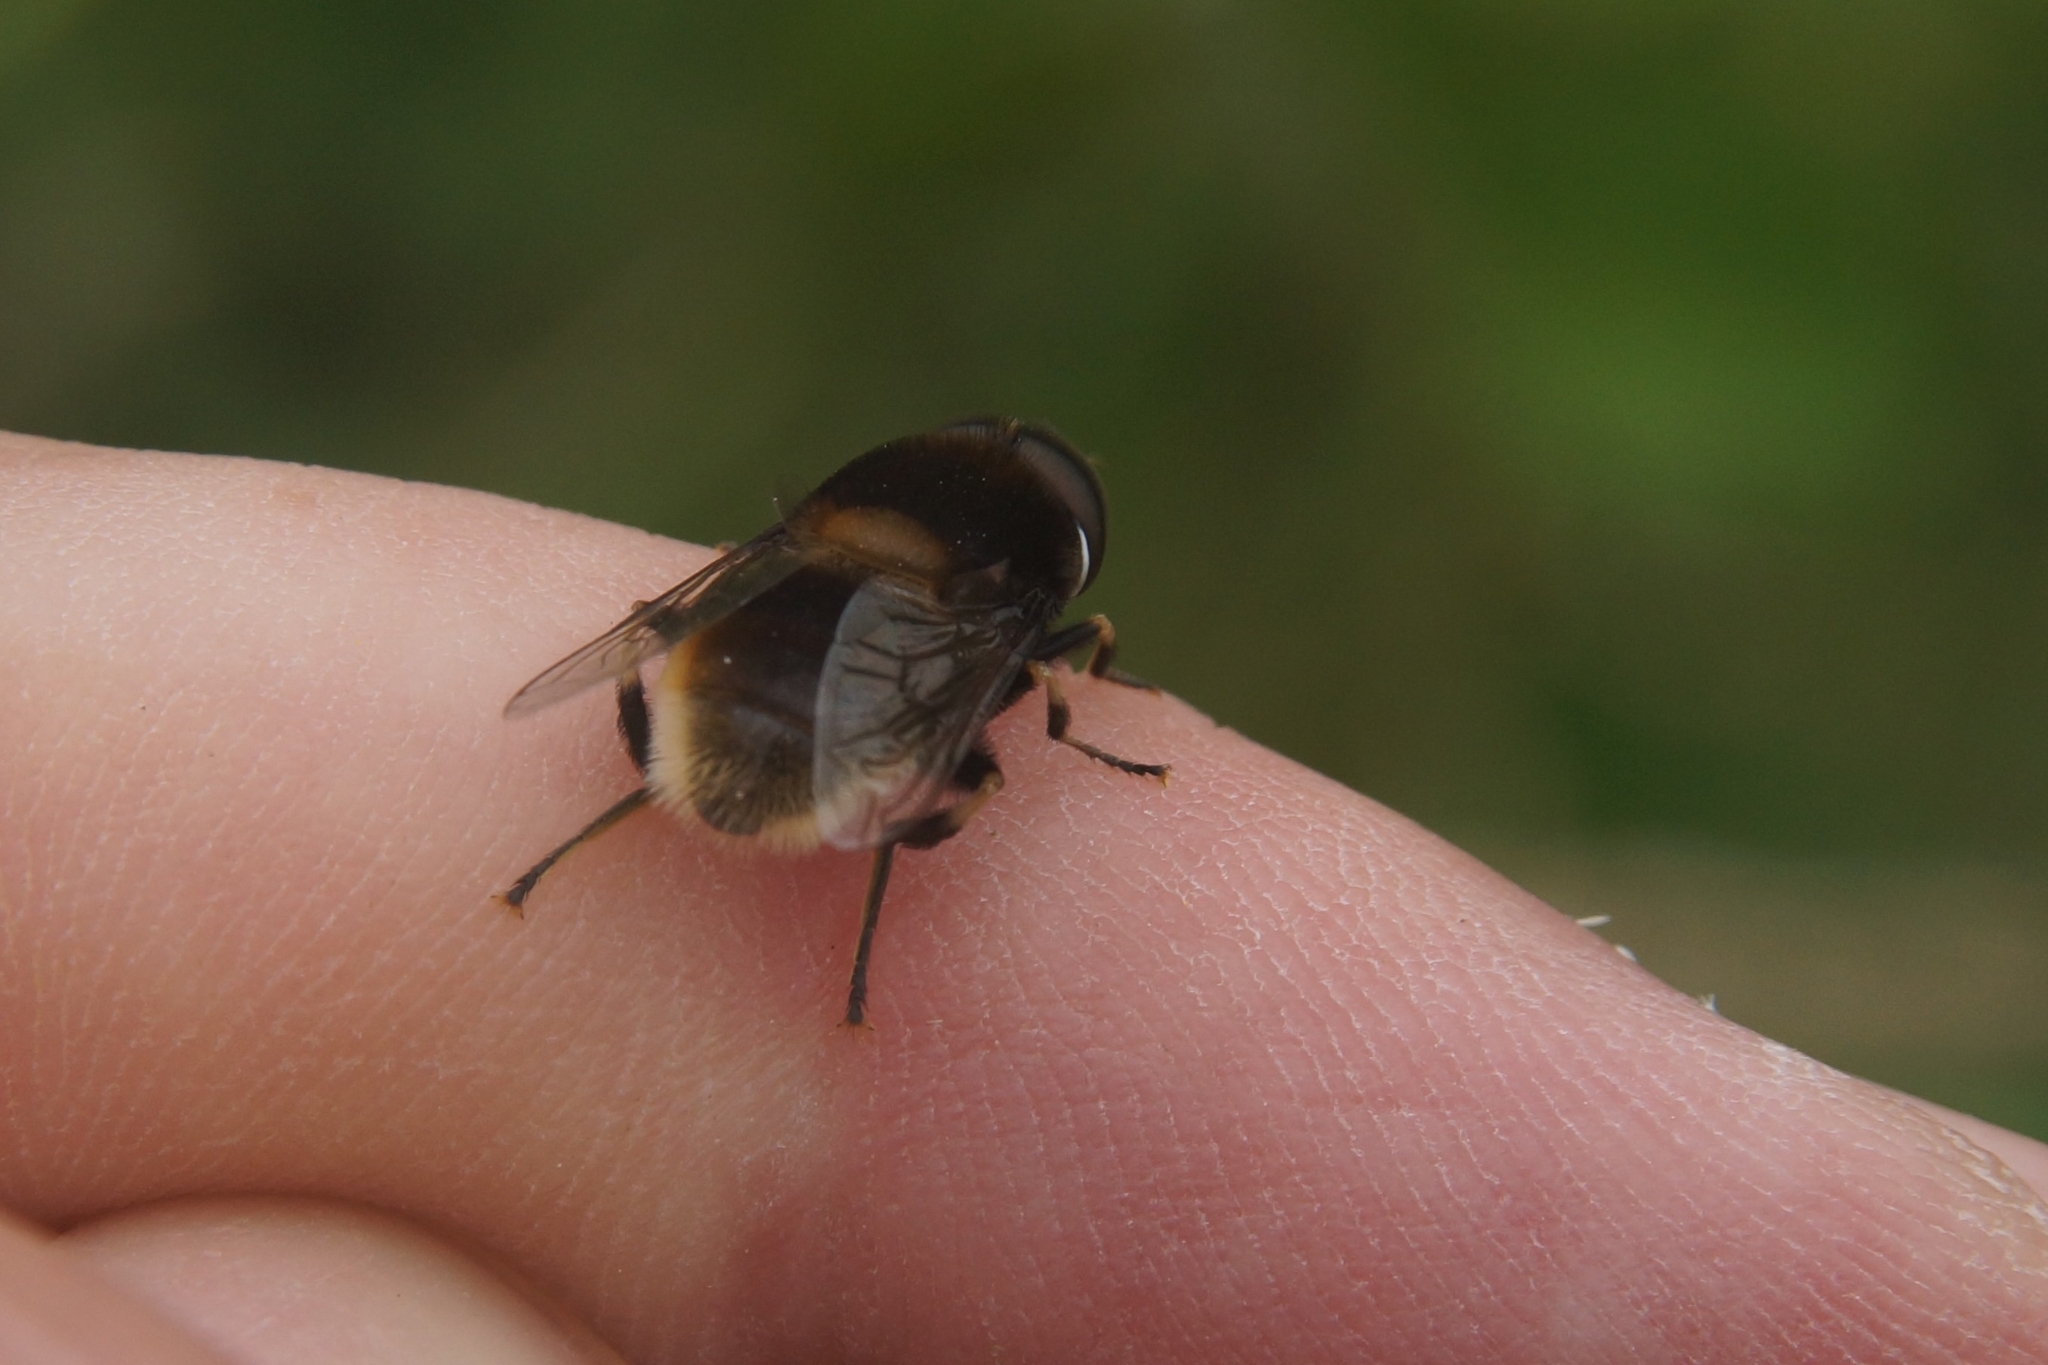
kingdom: Animalia
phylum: Arthropoda
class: Insecta
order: Diptera
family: Syrphidae
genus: Eristalis
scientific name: Eristalis intricaria
